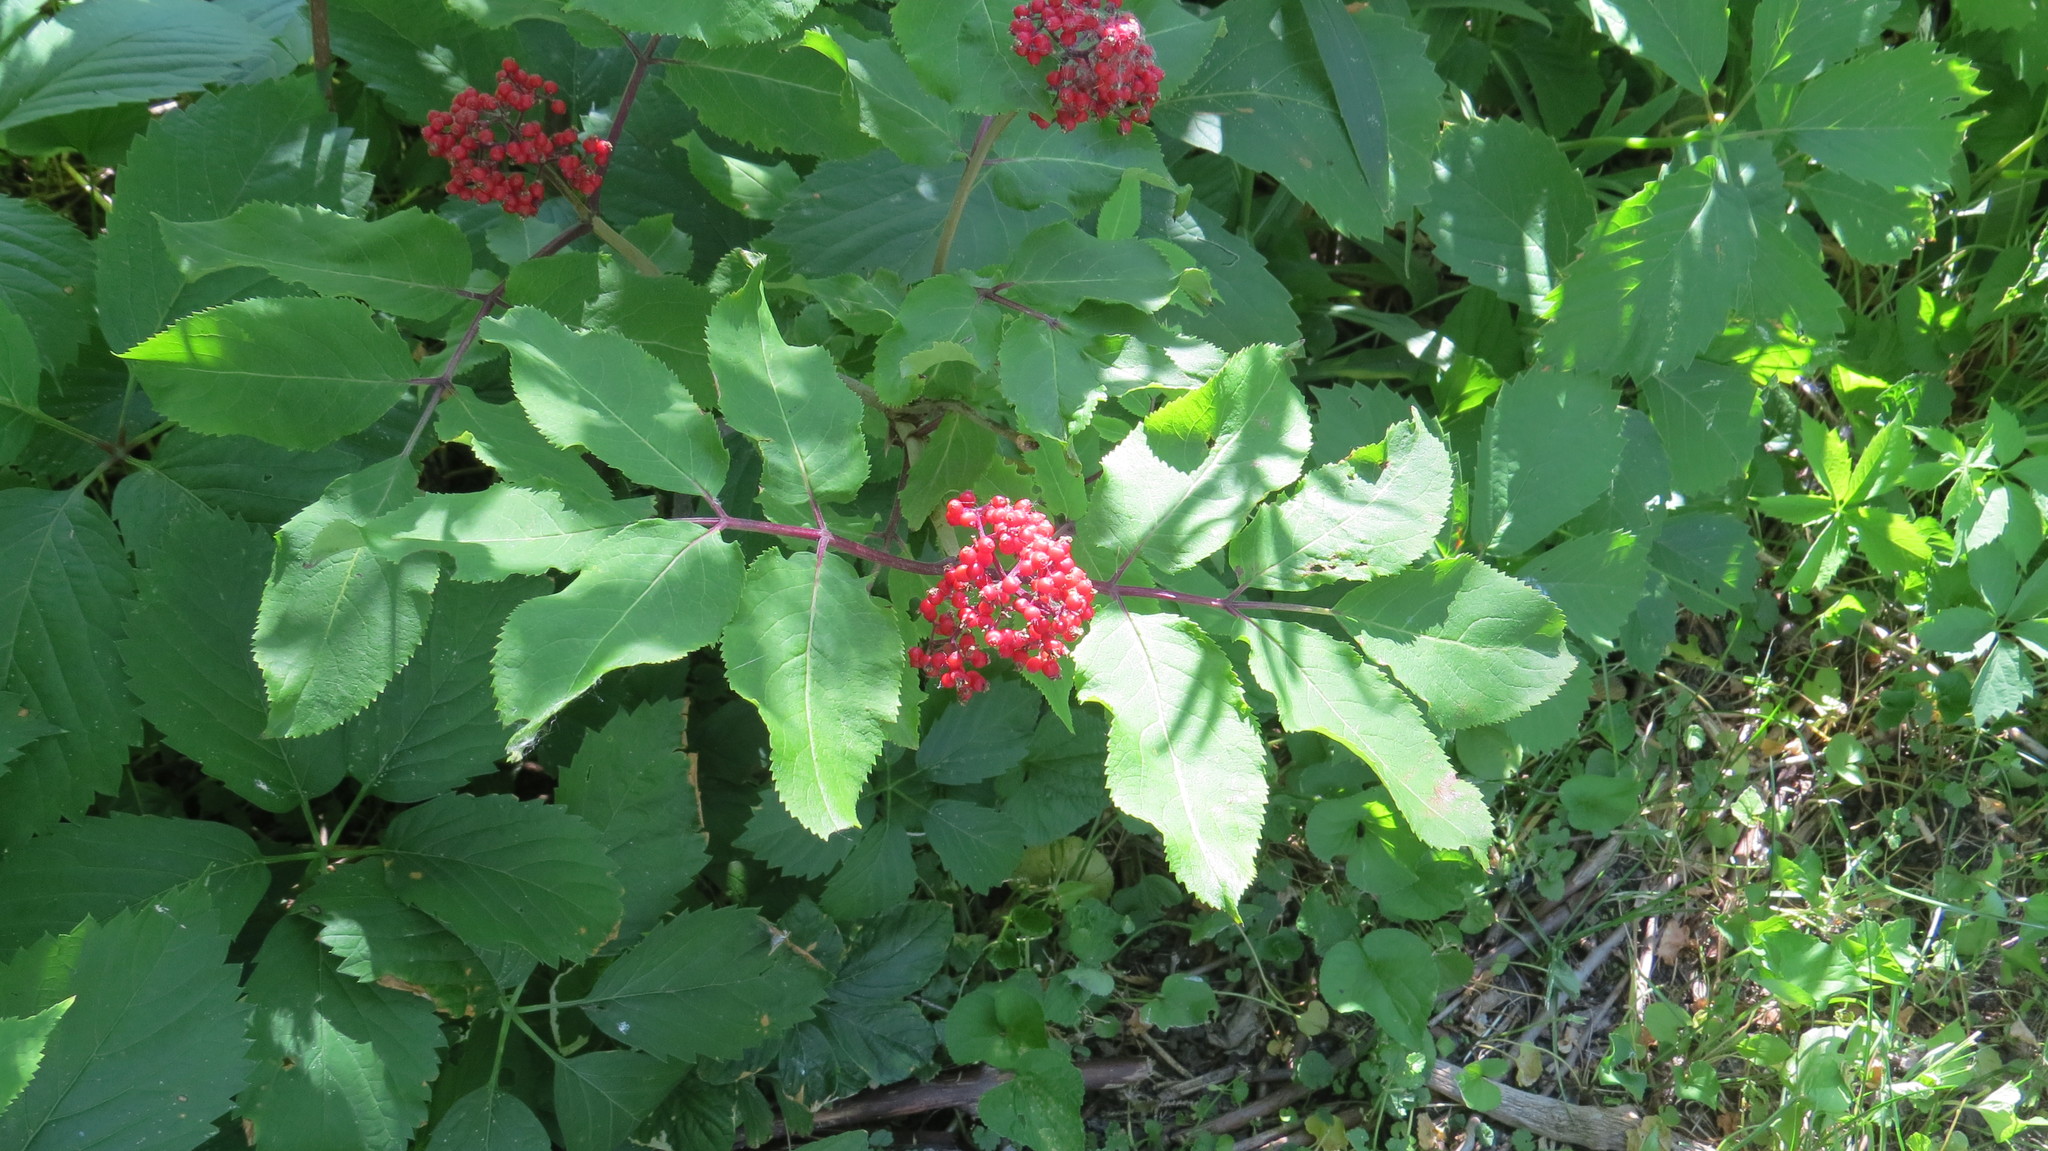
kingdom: Plantae
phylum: Tracheophyta
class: Magnoliopsida
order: Dipsacales
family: Viburnaceae
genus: Sambucus
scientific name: Sambucus racemosa
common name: Red-berried elder
